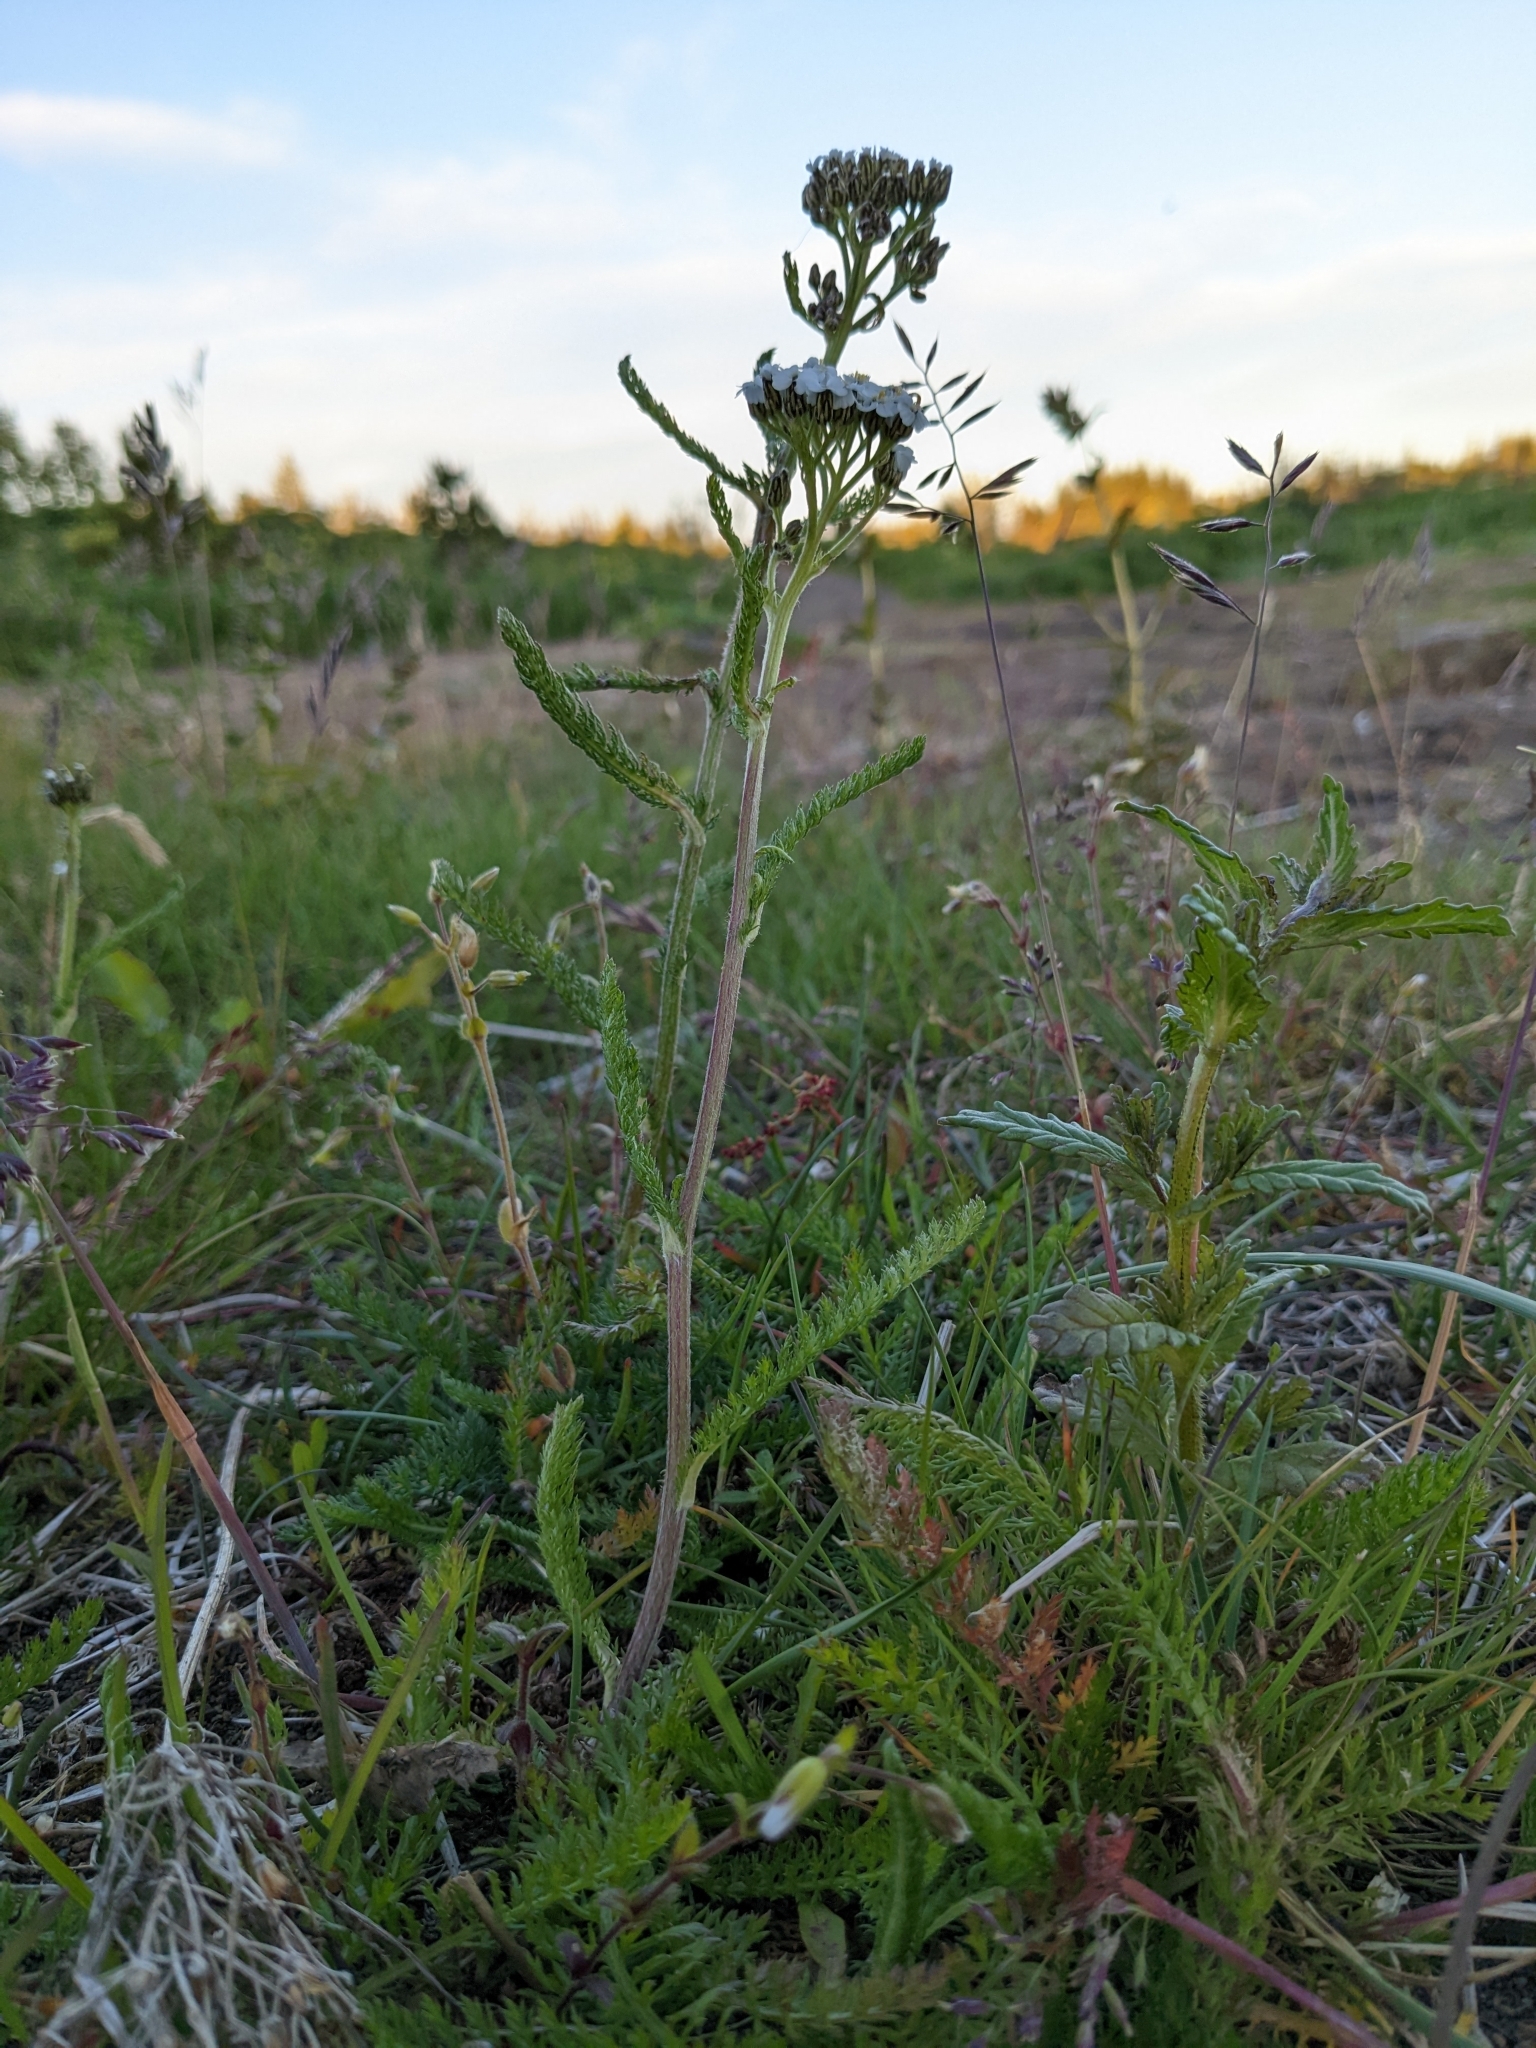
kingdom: Plantae
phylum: Tracheophyta
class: Magnoliopsida
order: Asterales
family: Asteraceae
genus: Achillea
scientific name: Achillea millefolium
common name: Yarrow
